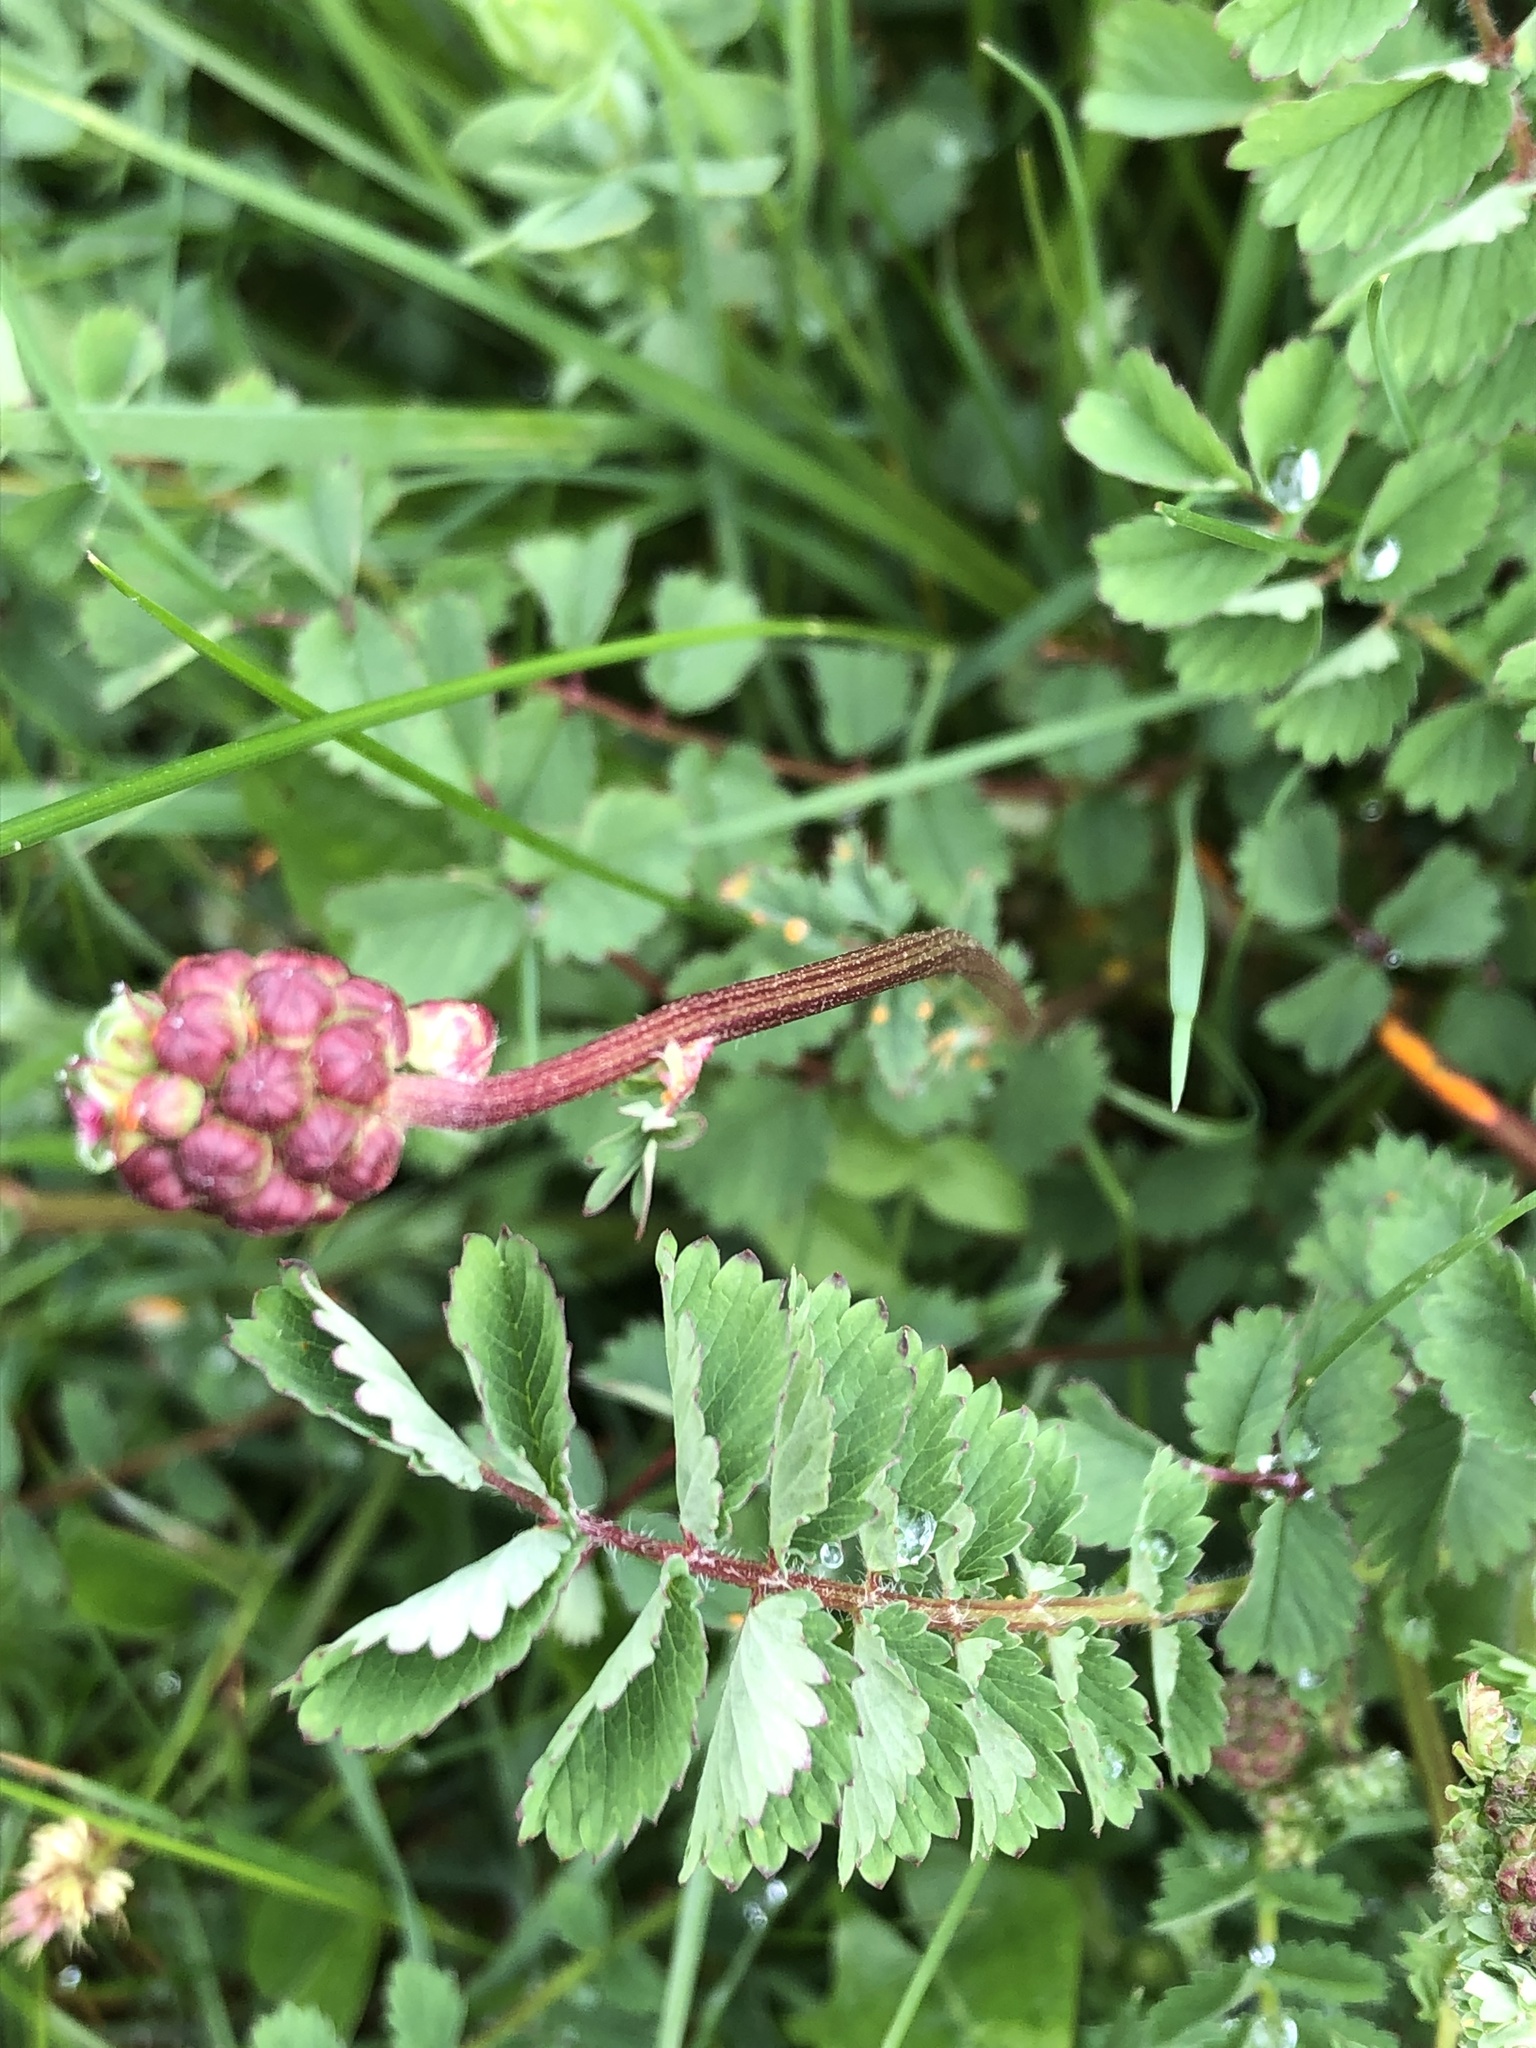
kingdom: Plantae
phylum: Tracheophyta
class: Magnoliopsida
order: Rosales
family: Rosaceae
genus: Poterium
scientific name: Poterium sanguisorba
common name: Salad burnet
